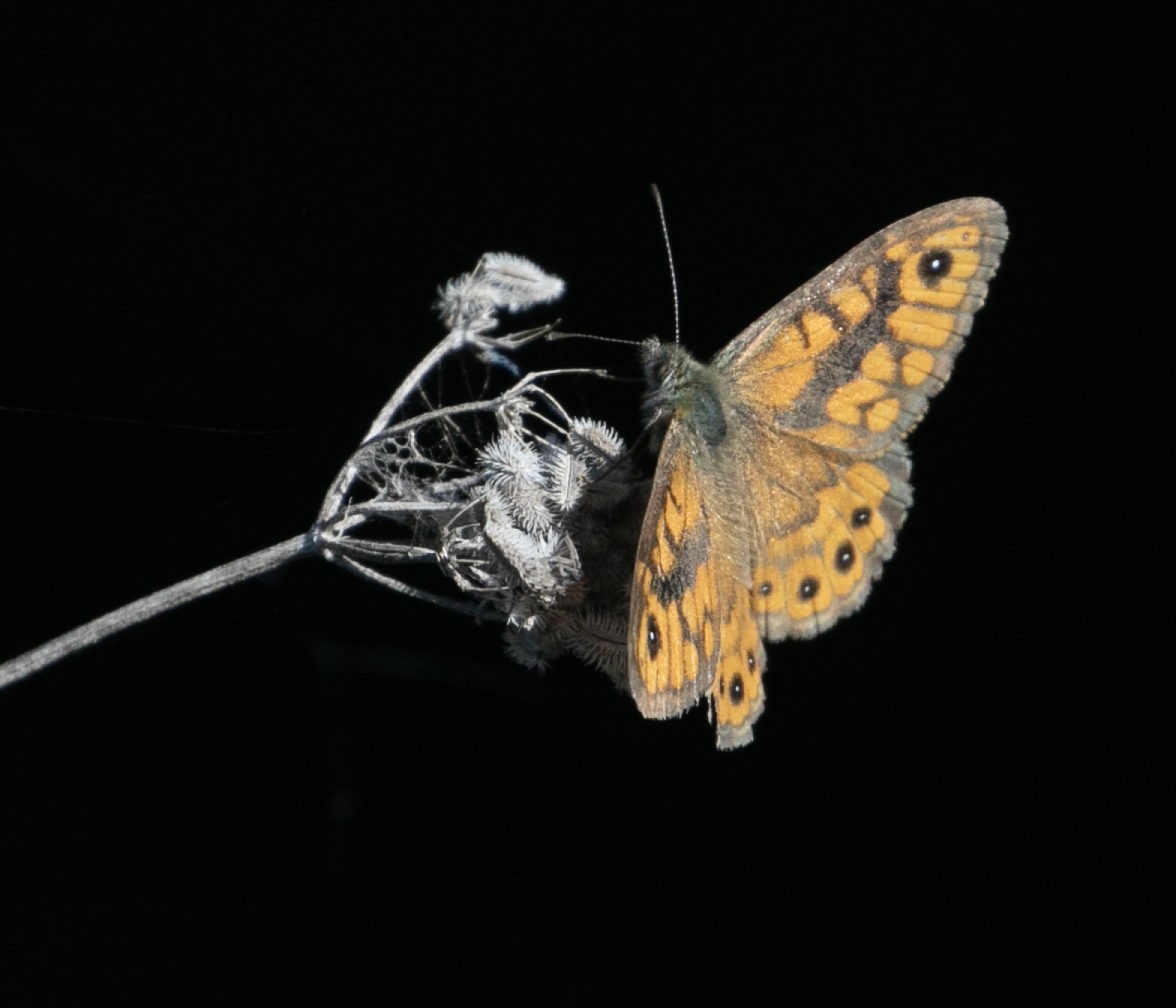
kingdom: Animalia
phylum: Arthropoda
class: Insecta
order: Lepidoptera
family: Nymphalidae
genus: Pararge
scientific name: Pararge Lasiommata megera
